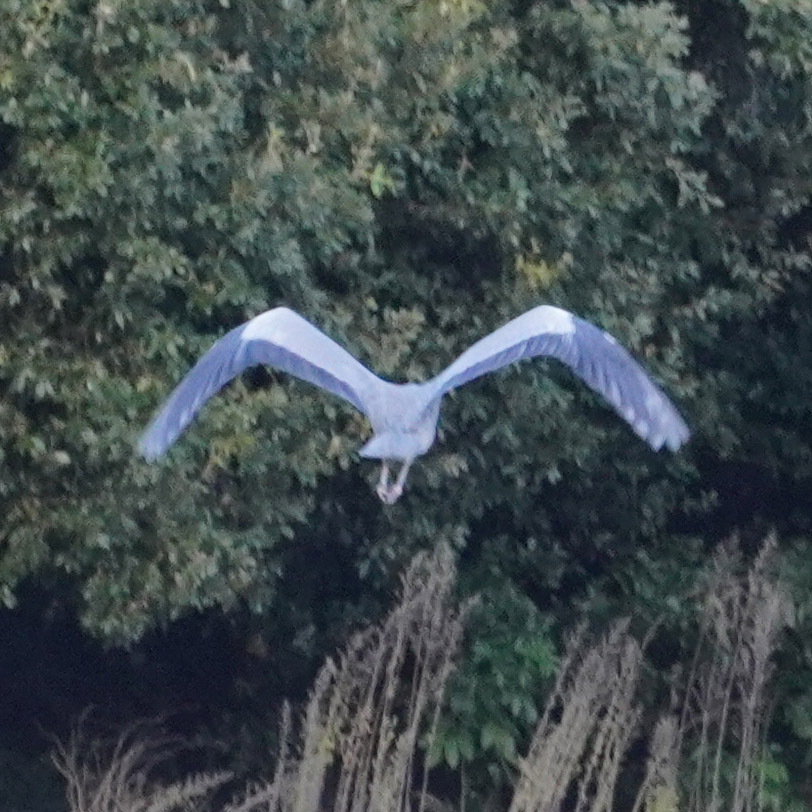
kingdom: Animalia
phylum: Chordata
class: Aves
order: Pelecaniformes
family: Ardeidae
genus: Ardea
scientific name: Ardea cinerea
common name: Grey heron
